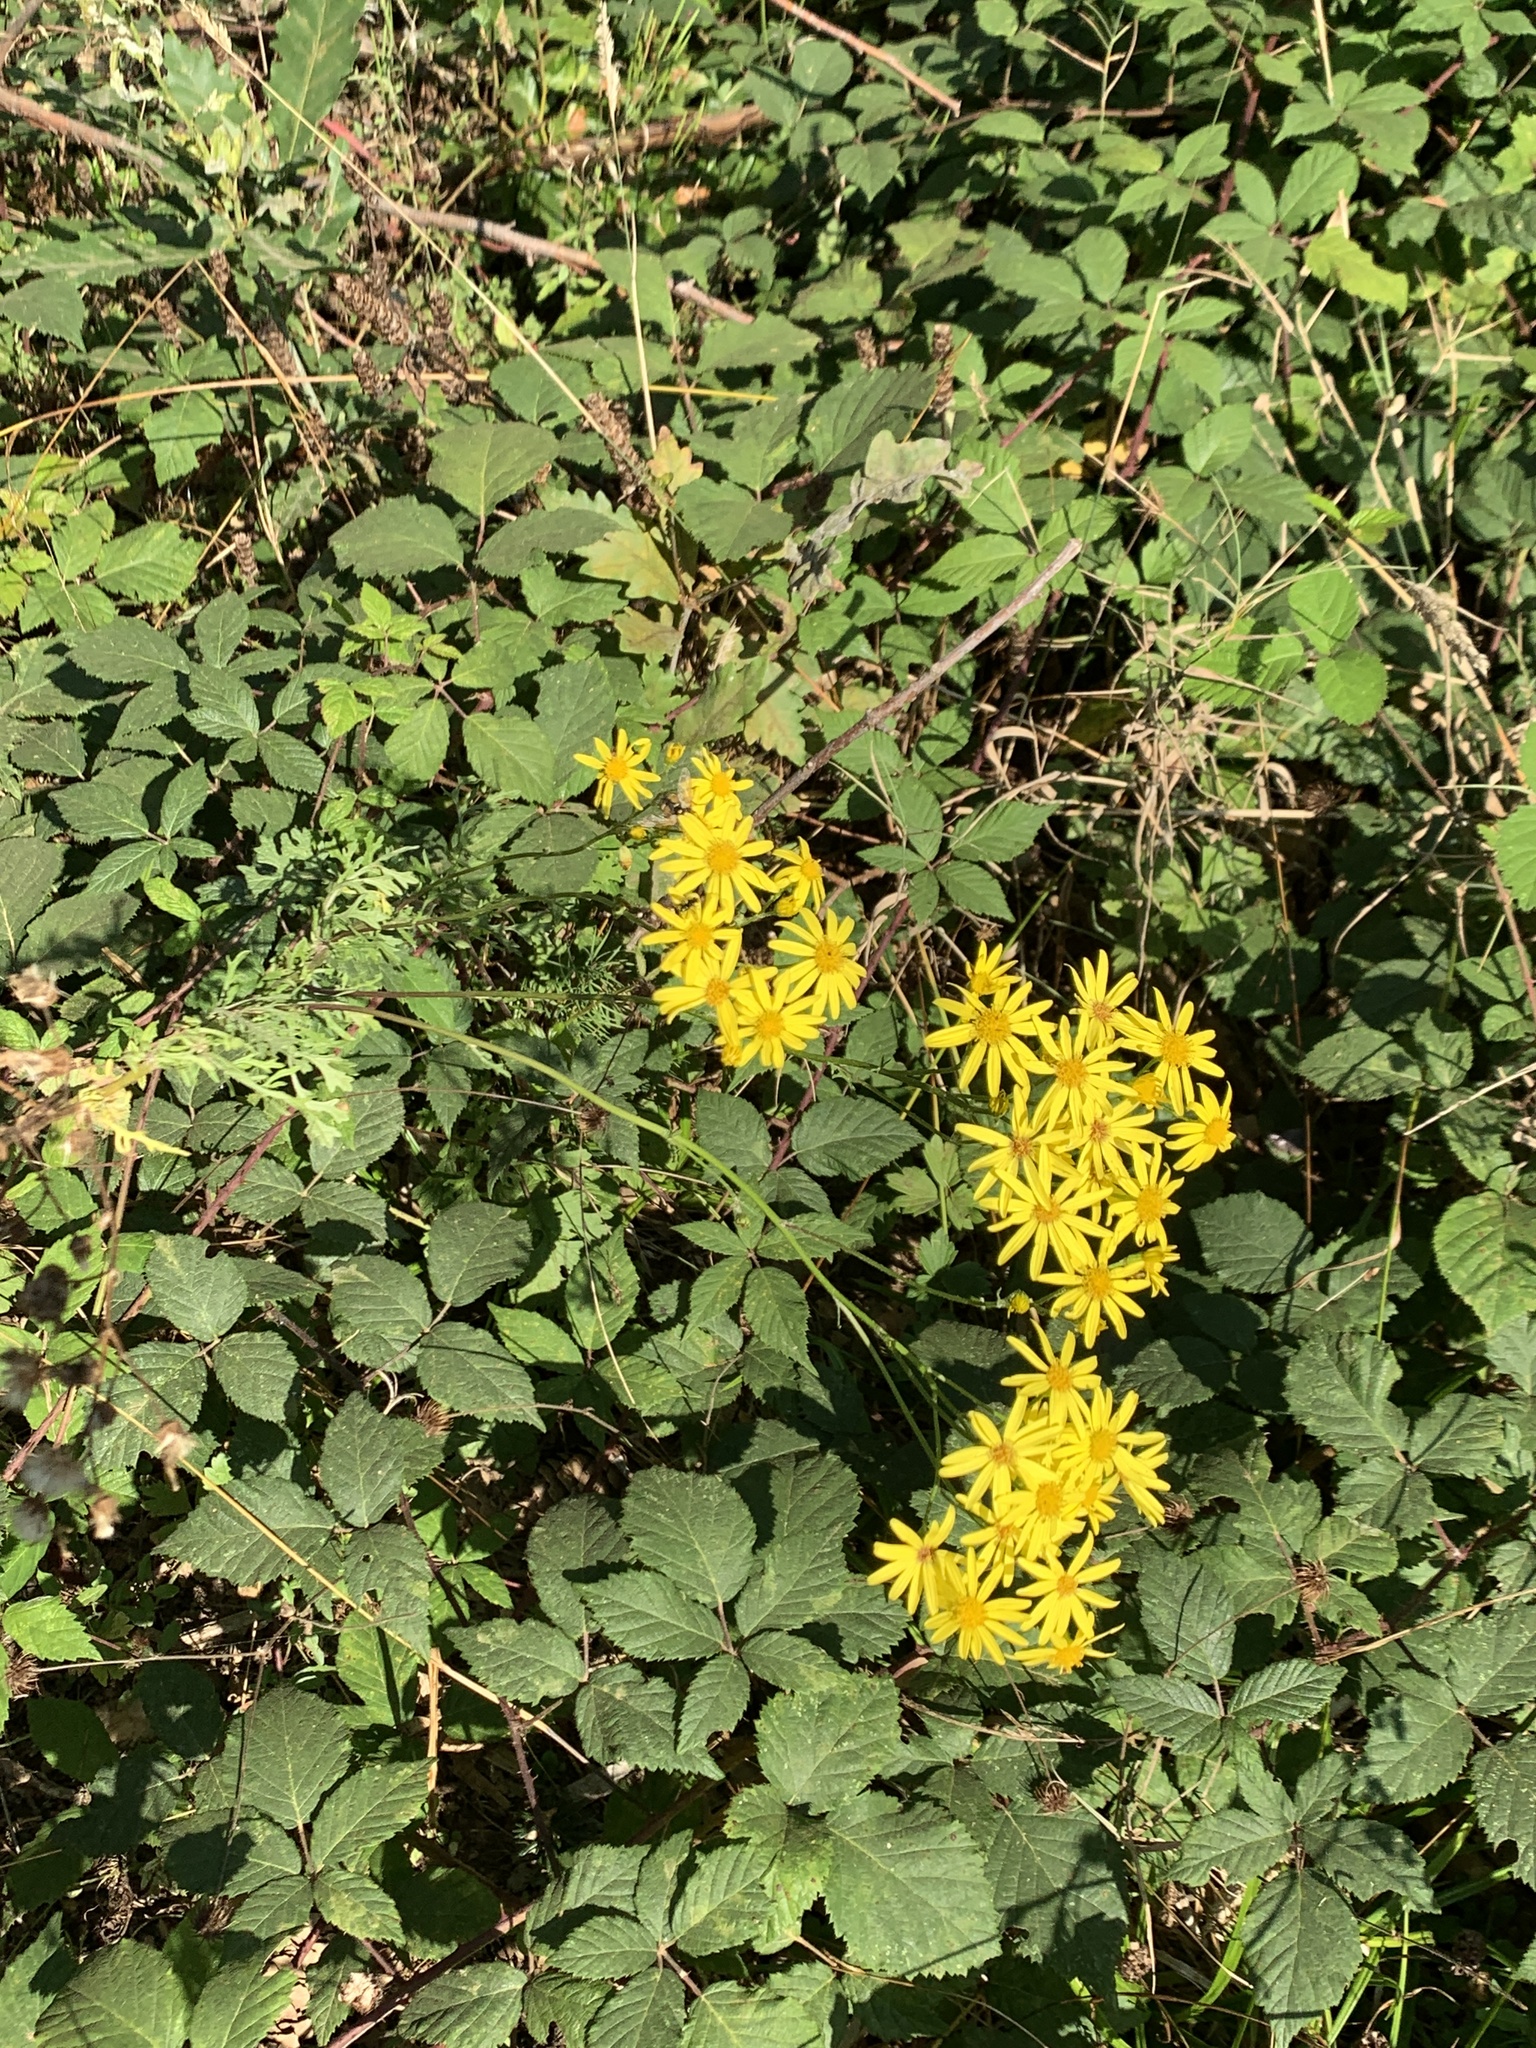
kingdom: Plantae
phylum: Tracheophyta
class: Magnoliopsida
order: Asterales
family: Asteraceae
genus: Jacobaea
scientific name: Jacobaea vulgaris
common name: Stinking willie
